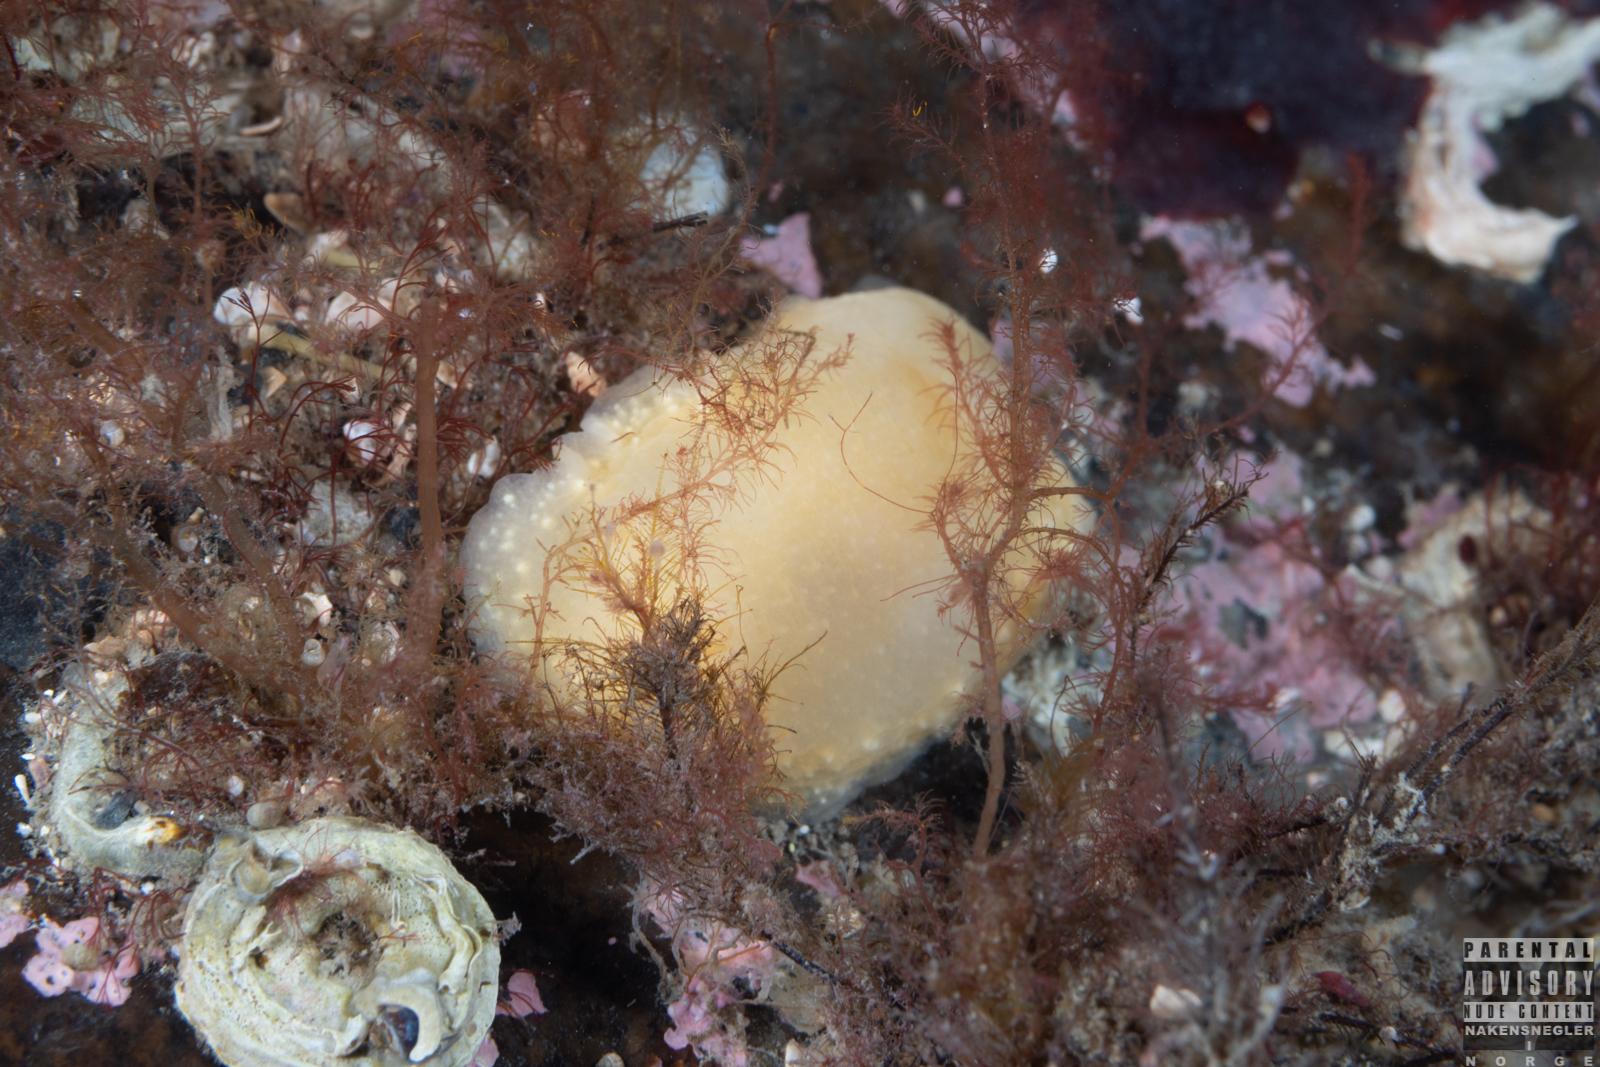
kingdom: Animalia
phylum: Mollusca
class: Gastropoda
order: Nudibranchia
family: Cadlinidae
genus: Cadlina
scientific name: Cadlina laevis
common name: White atlantic cadlina
